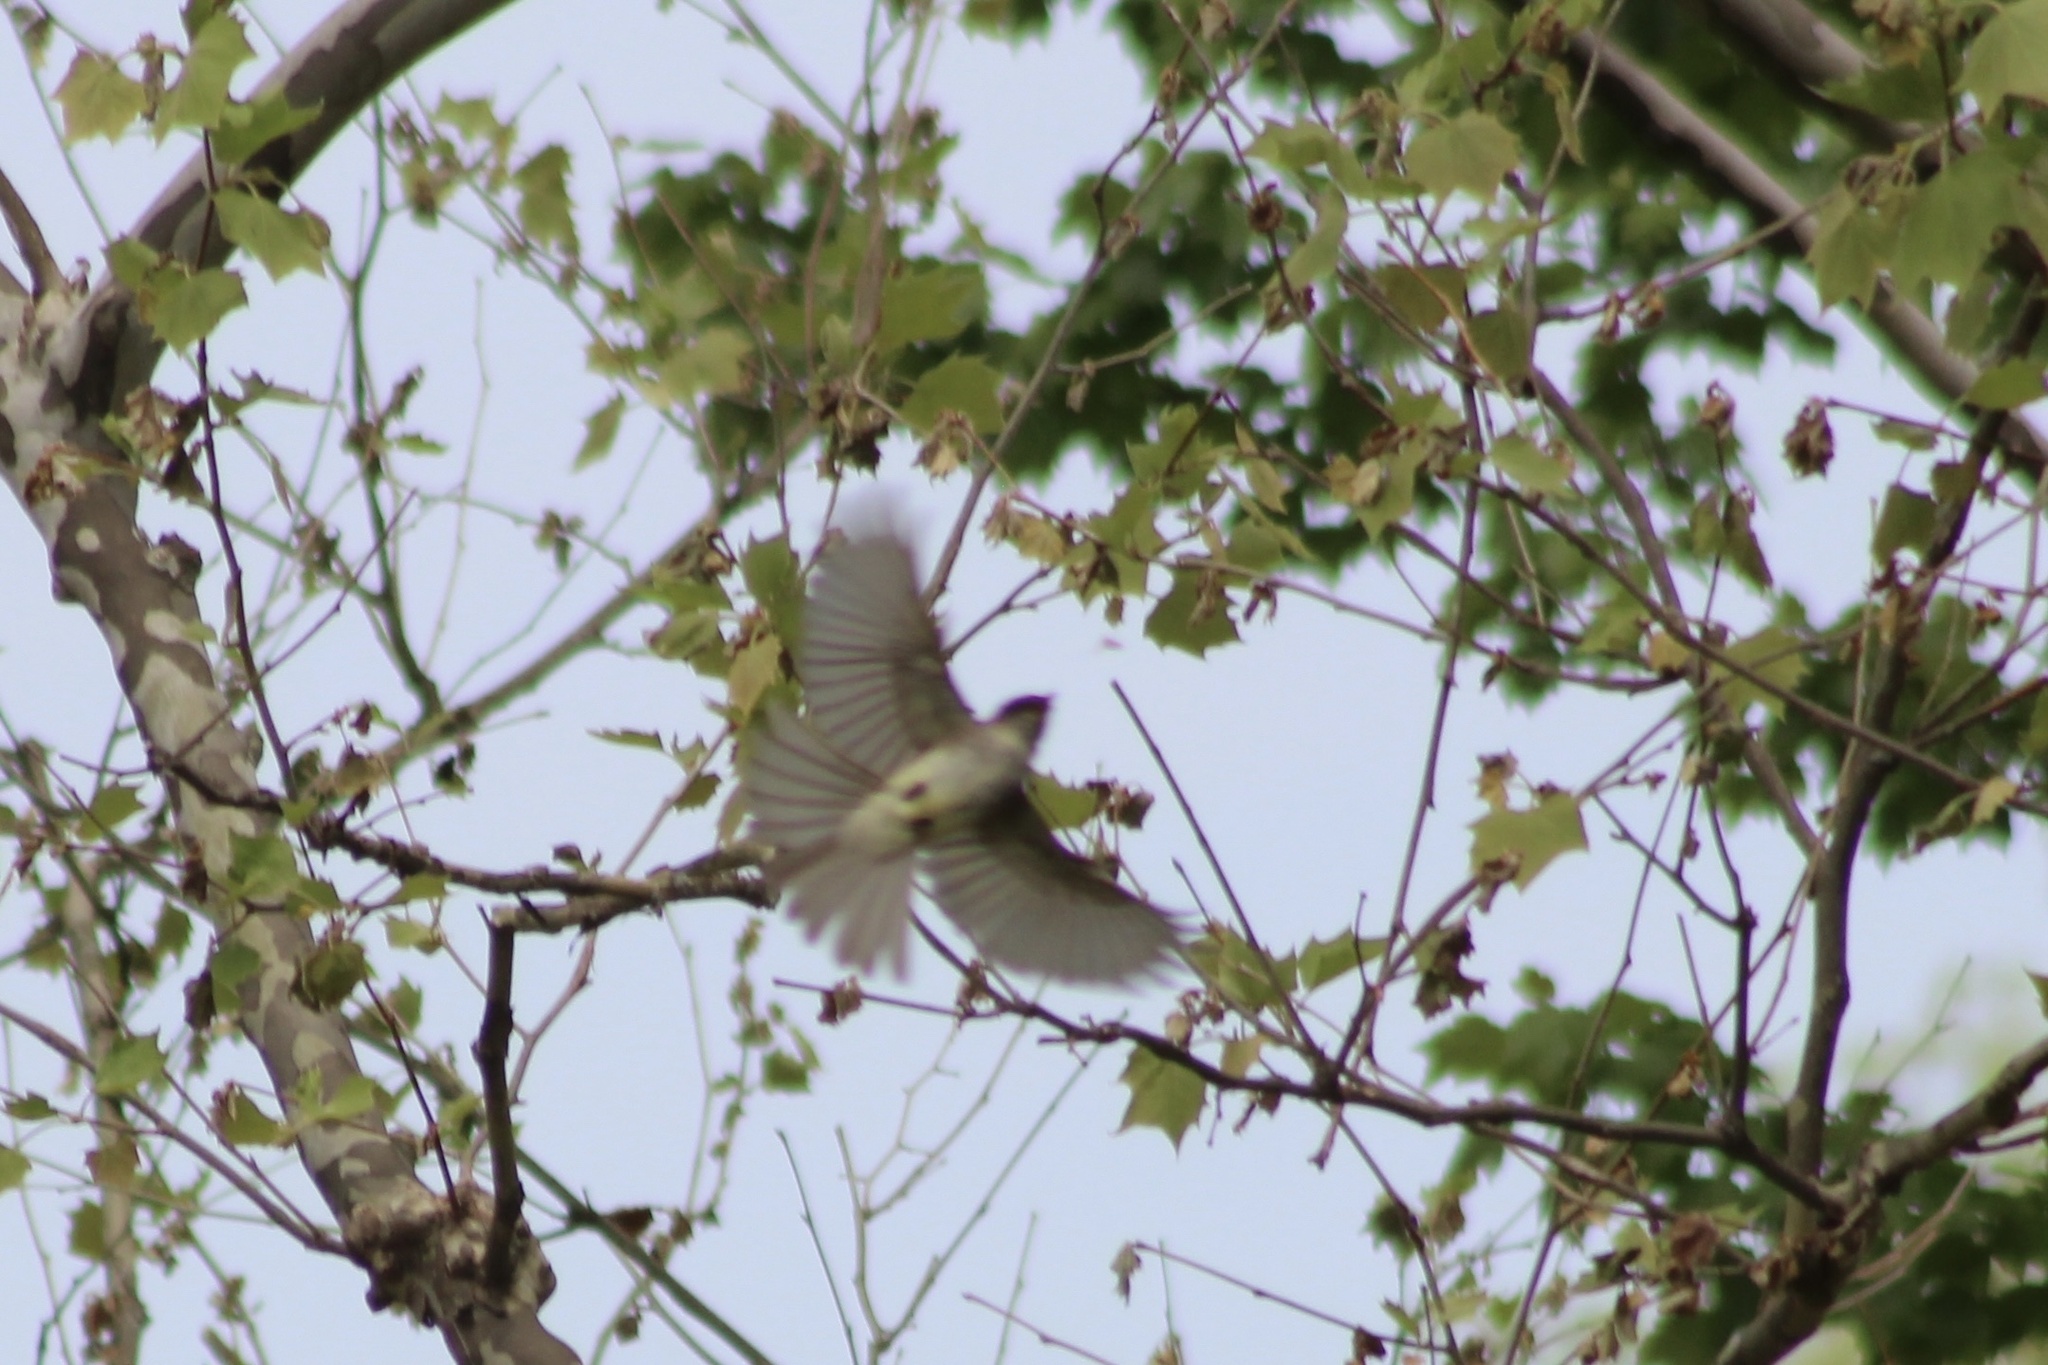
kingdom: Animalia
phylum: Chordata
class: Aves
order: Passeriformes
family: Tyrannidae
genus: Sayornis
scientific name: Sayornis phoebe
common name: Eastern phoebe
